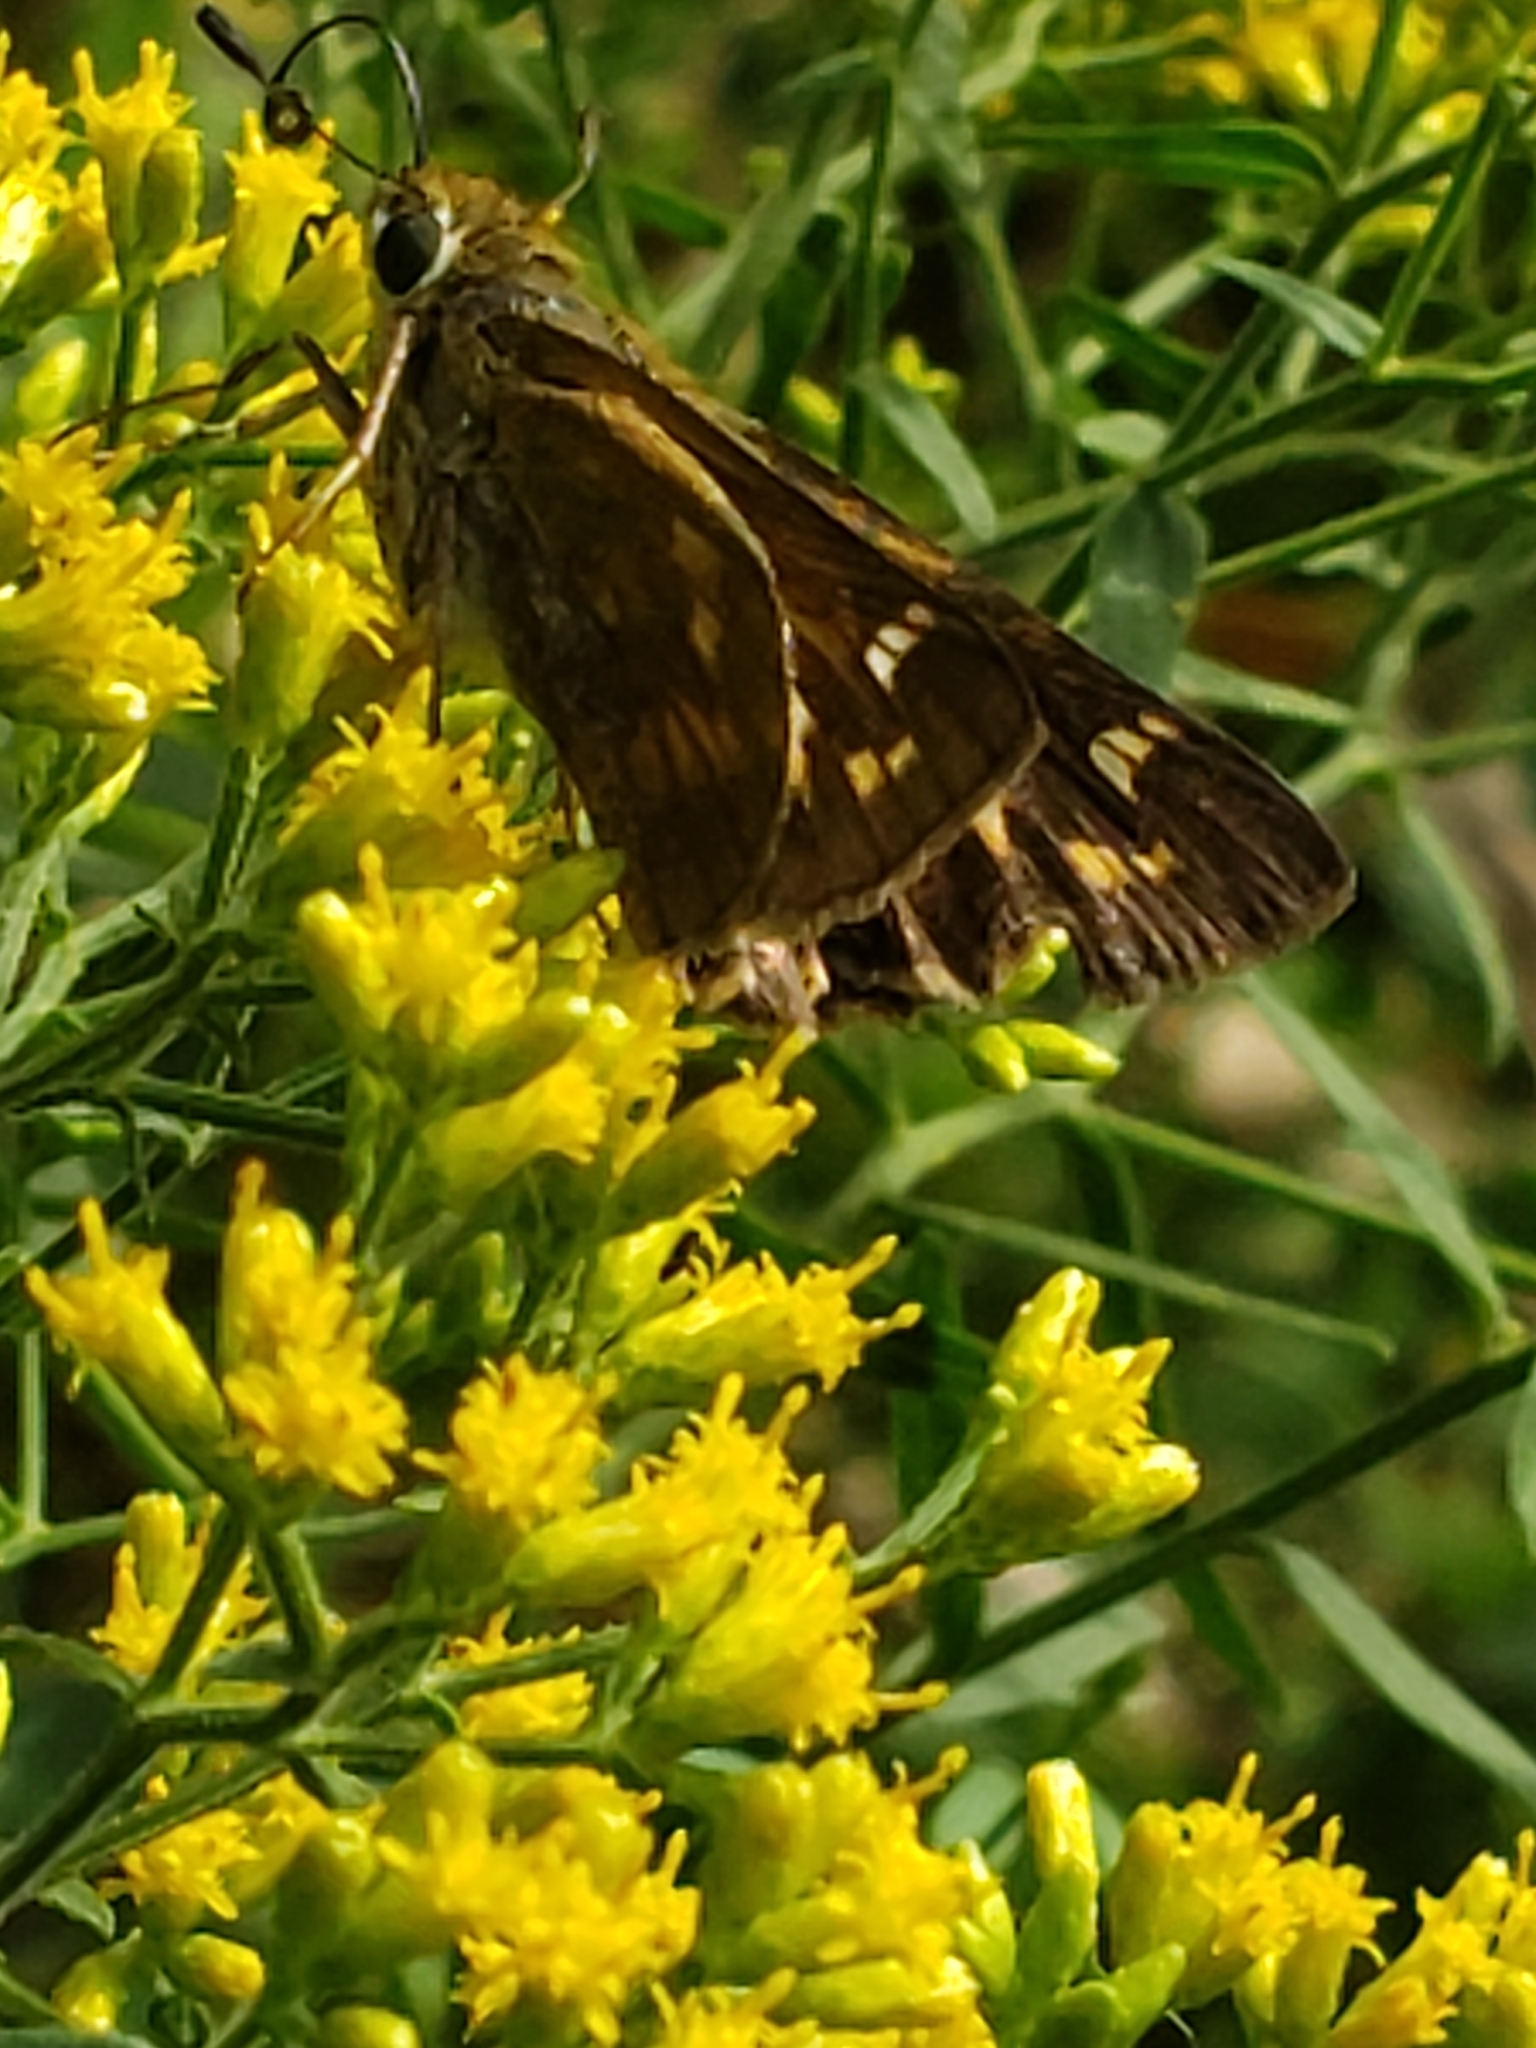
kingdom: Animalia
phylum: Arthropoda
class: Insecta
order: Lepidoptera
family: Hesperiidae
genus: Atalopedes
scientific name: Atalopedes
